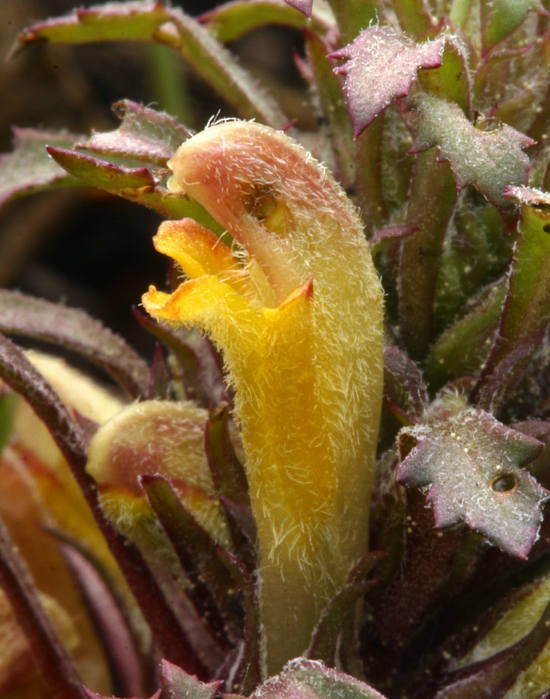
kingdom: Plantae
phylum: Tracheophyta
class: Magnoliopsida
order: Lamiales
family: Orobanchaceae
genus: Pedicularis
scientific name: Pedicularis semibarbata
